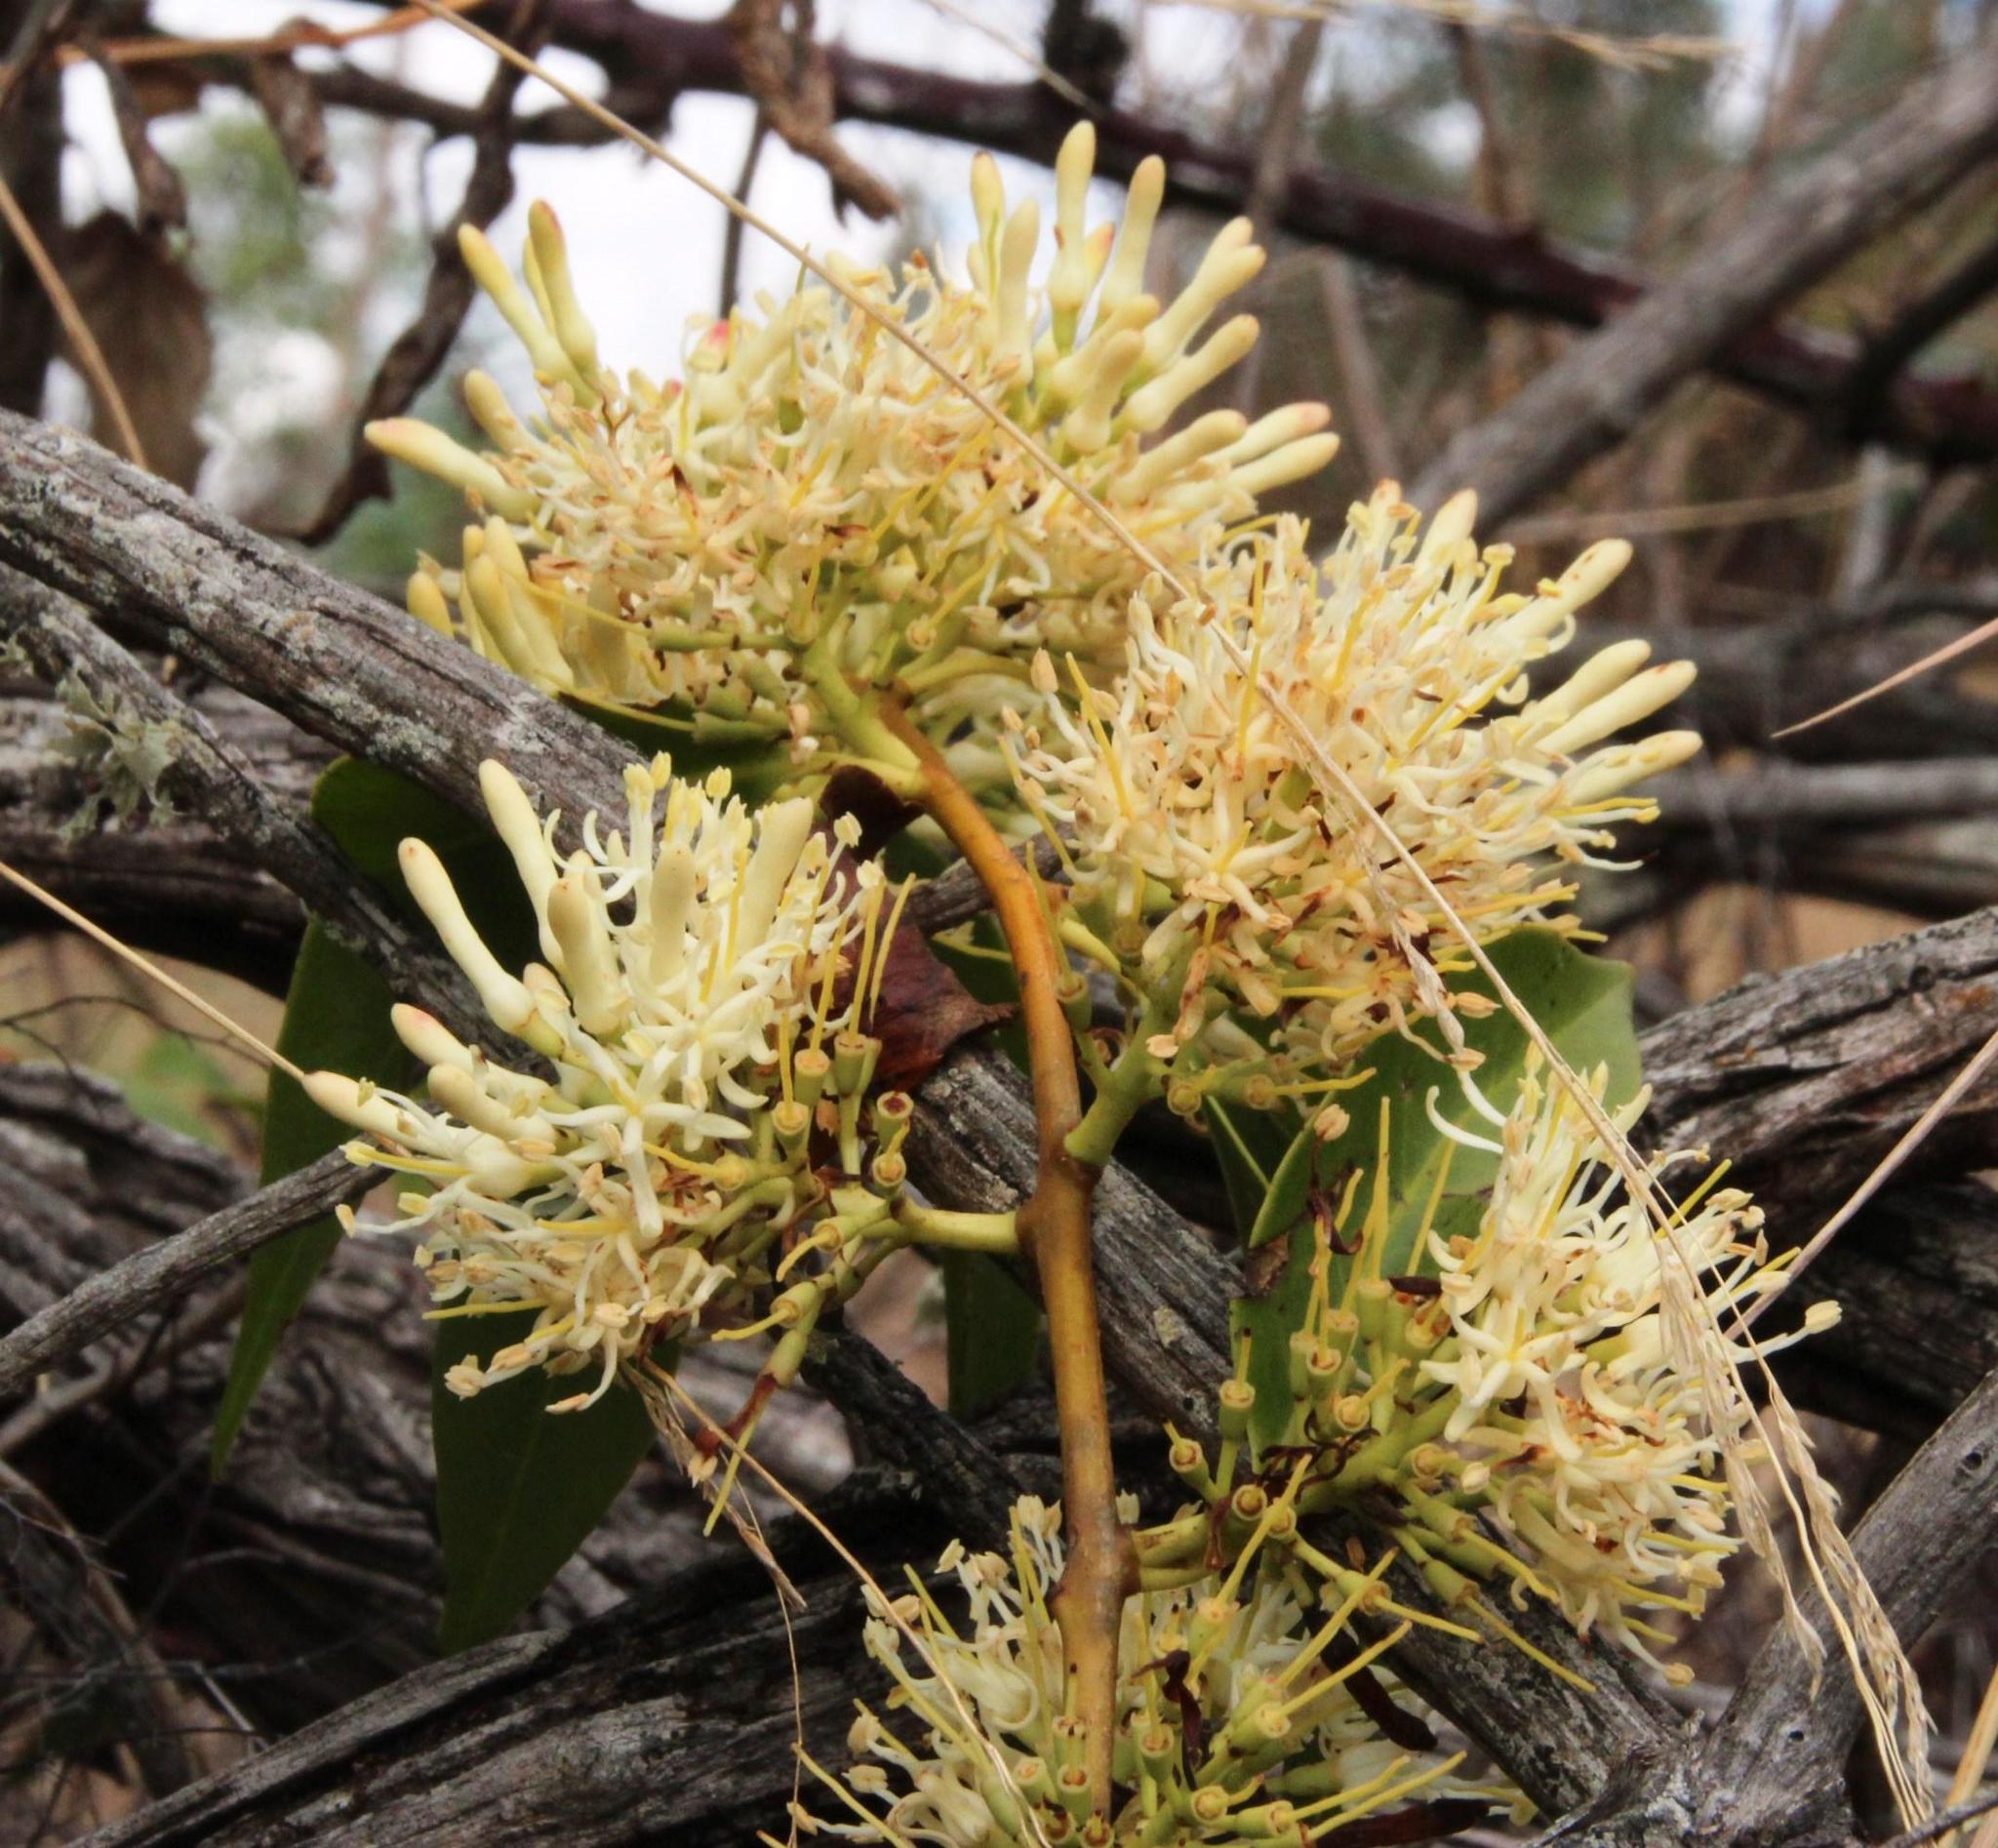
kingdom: Plantae
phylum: Tracheophyta
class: Magnoliopsida
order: Santalales
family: Loranthaceae
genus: Tripodanthus
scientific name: Tripodanthus acutifolius
